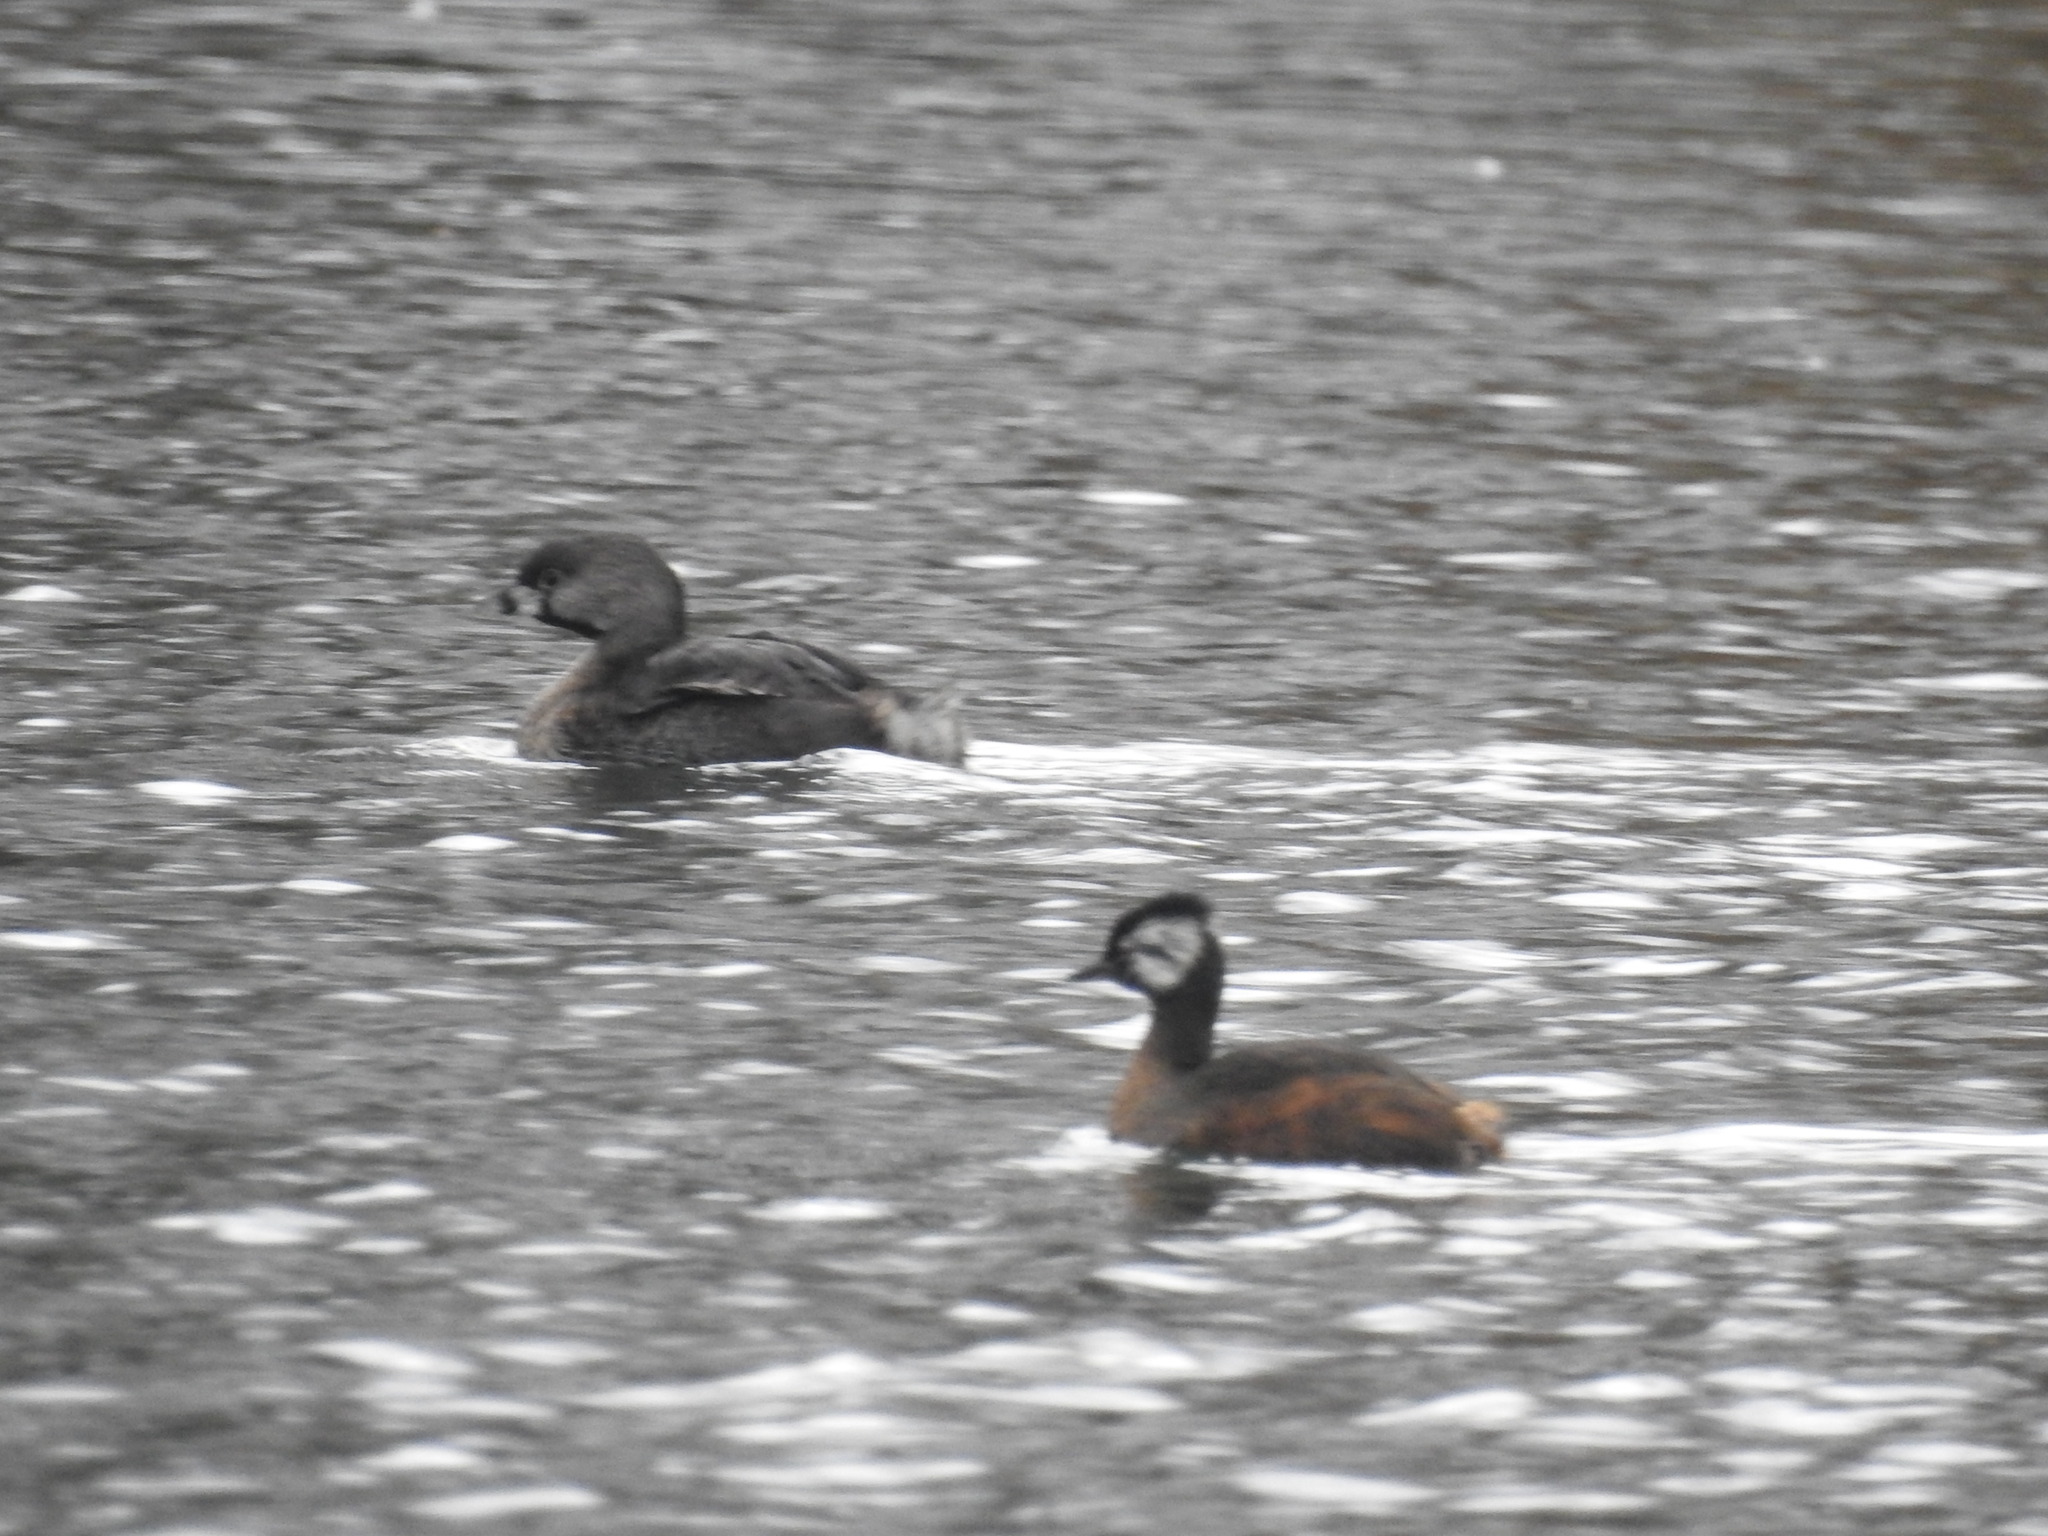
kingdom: Animalia
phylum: Chordata
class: Aves
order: Podicipediformes
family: Podicipedidae
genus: Podilymbus
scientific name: Podilymbus podiceps
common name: Pied-billed grebe
